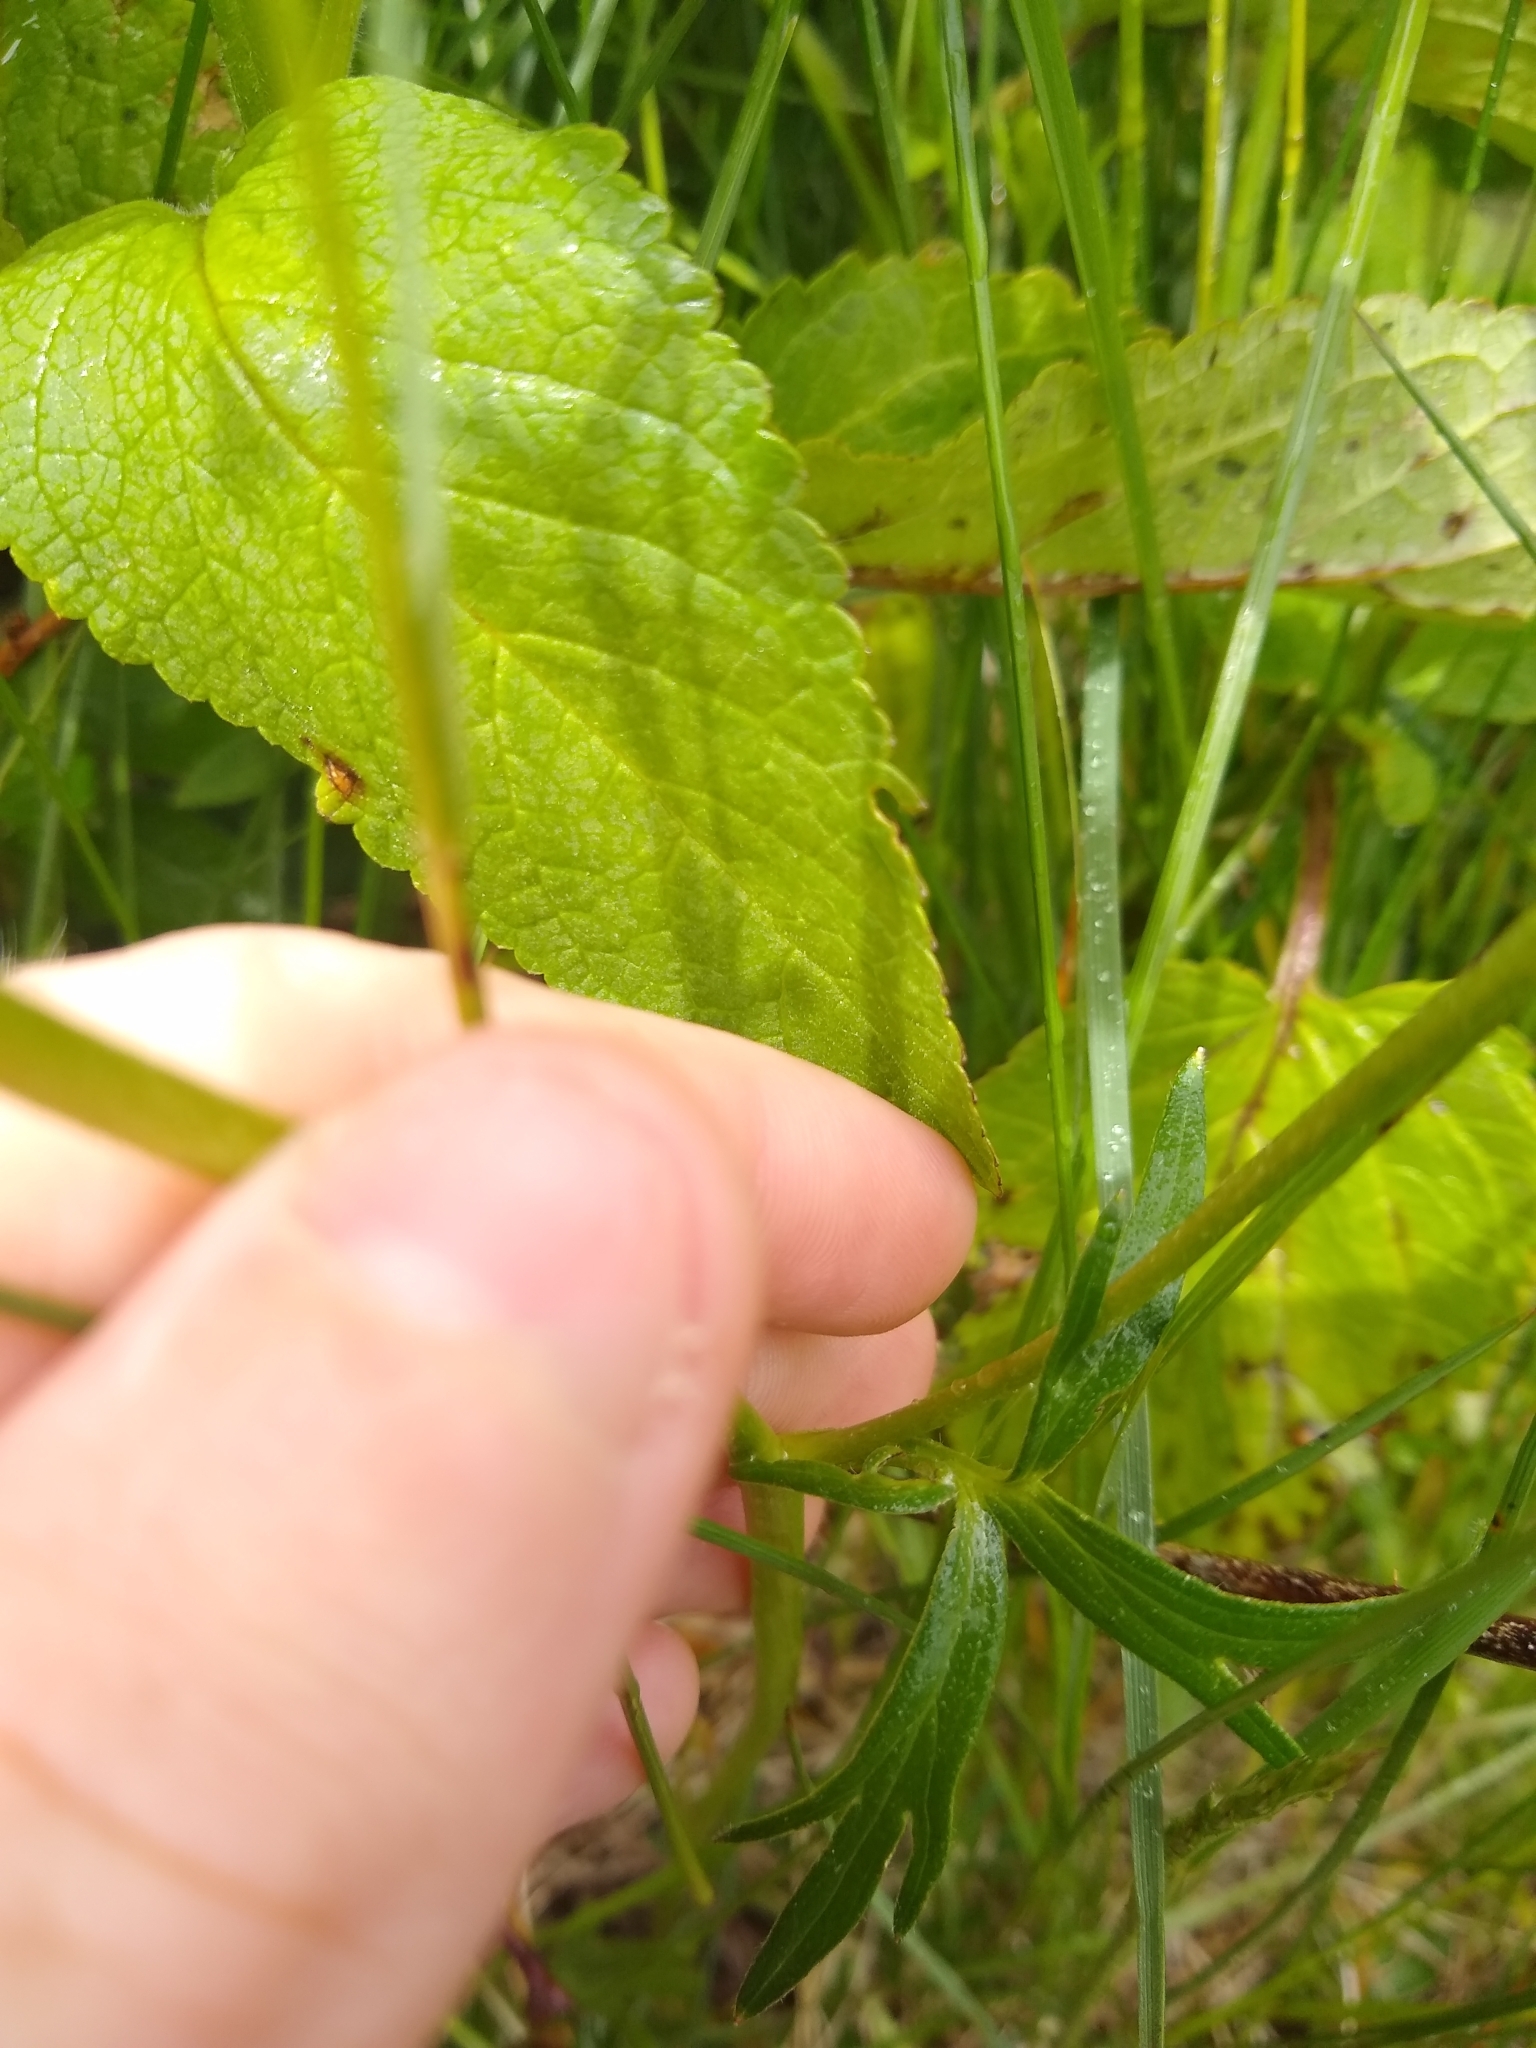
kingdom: Plantae
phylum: Tracheophyta
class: Magnoliopsida
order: Ranunculales
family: Ranunculaceae
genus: Delphinium
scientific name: Delphinium menziesii
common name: Menzies's larkspur
